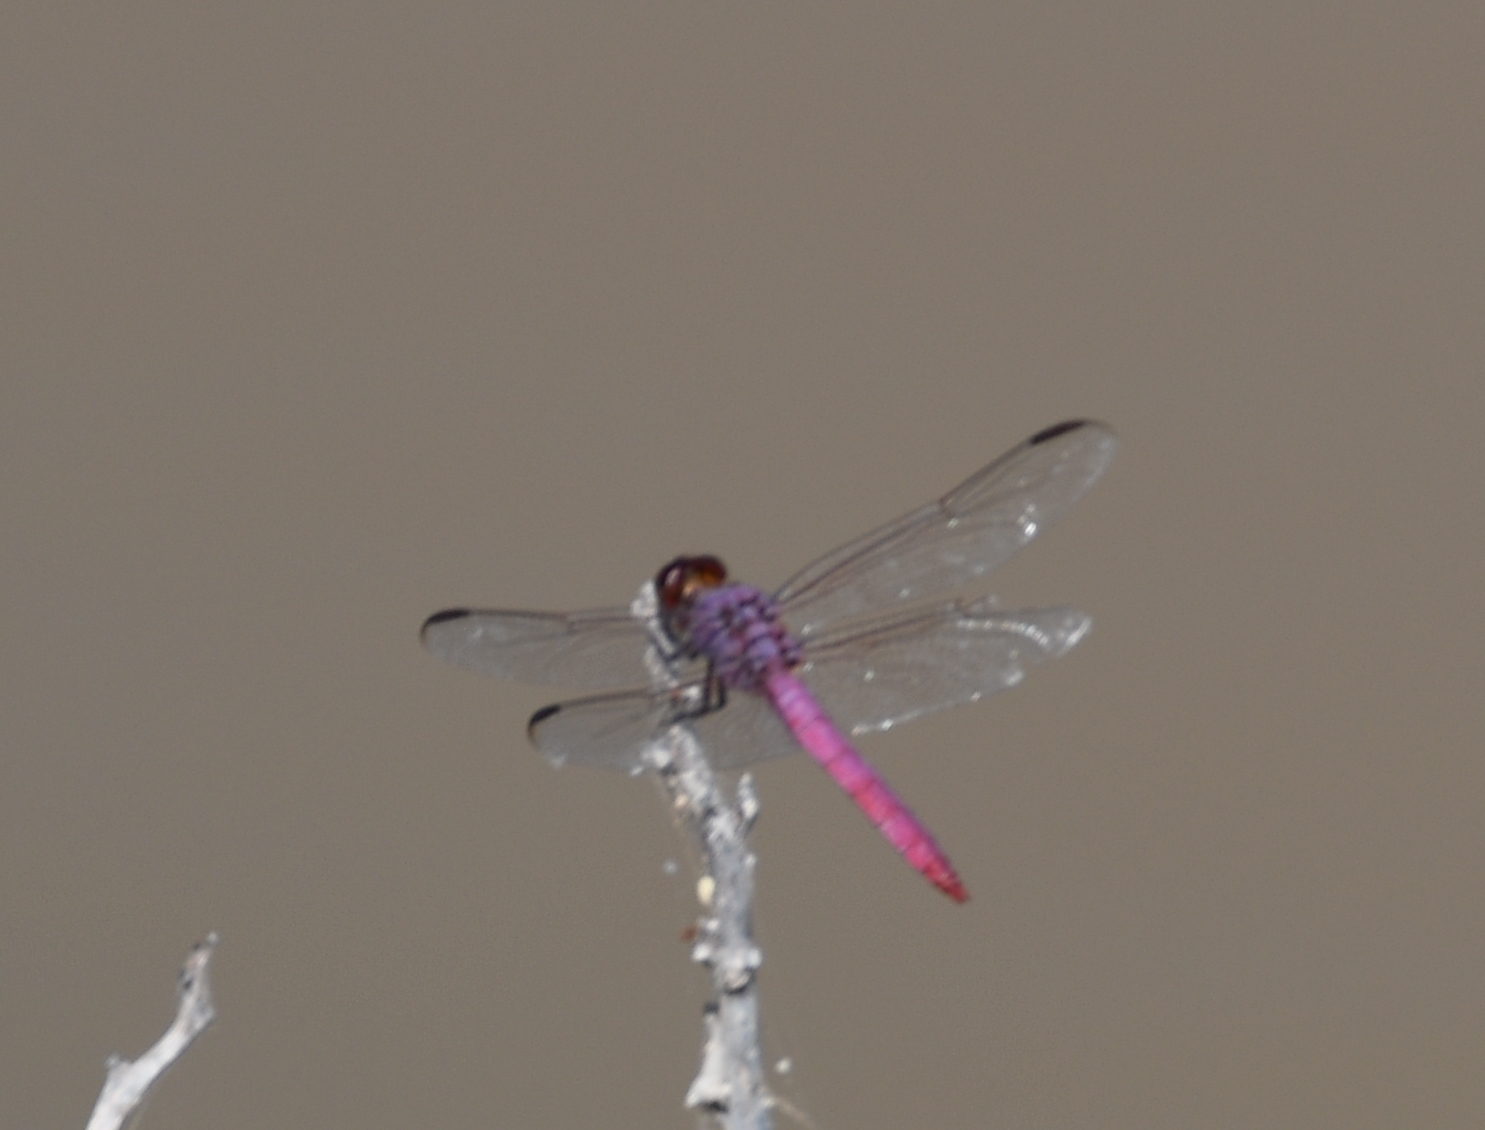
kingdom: Animalia
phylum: Arthropoda
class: Insecta
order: Odonata
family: Libellulidae
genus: Orthemis
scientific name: Orthemis ferruginea
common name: Roseate skimmer
